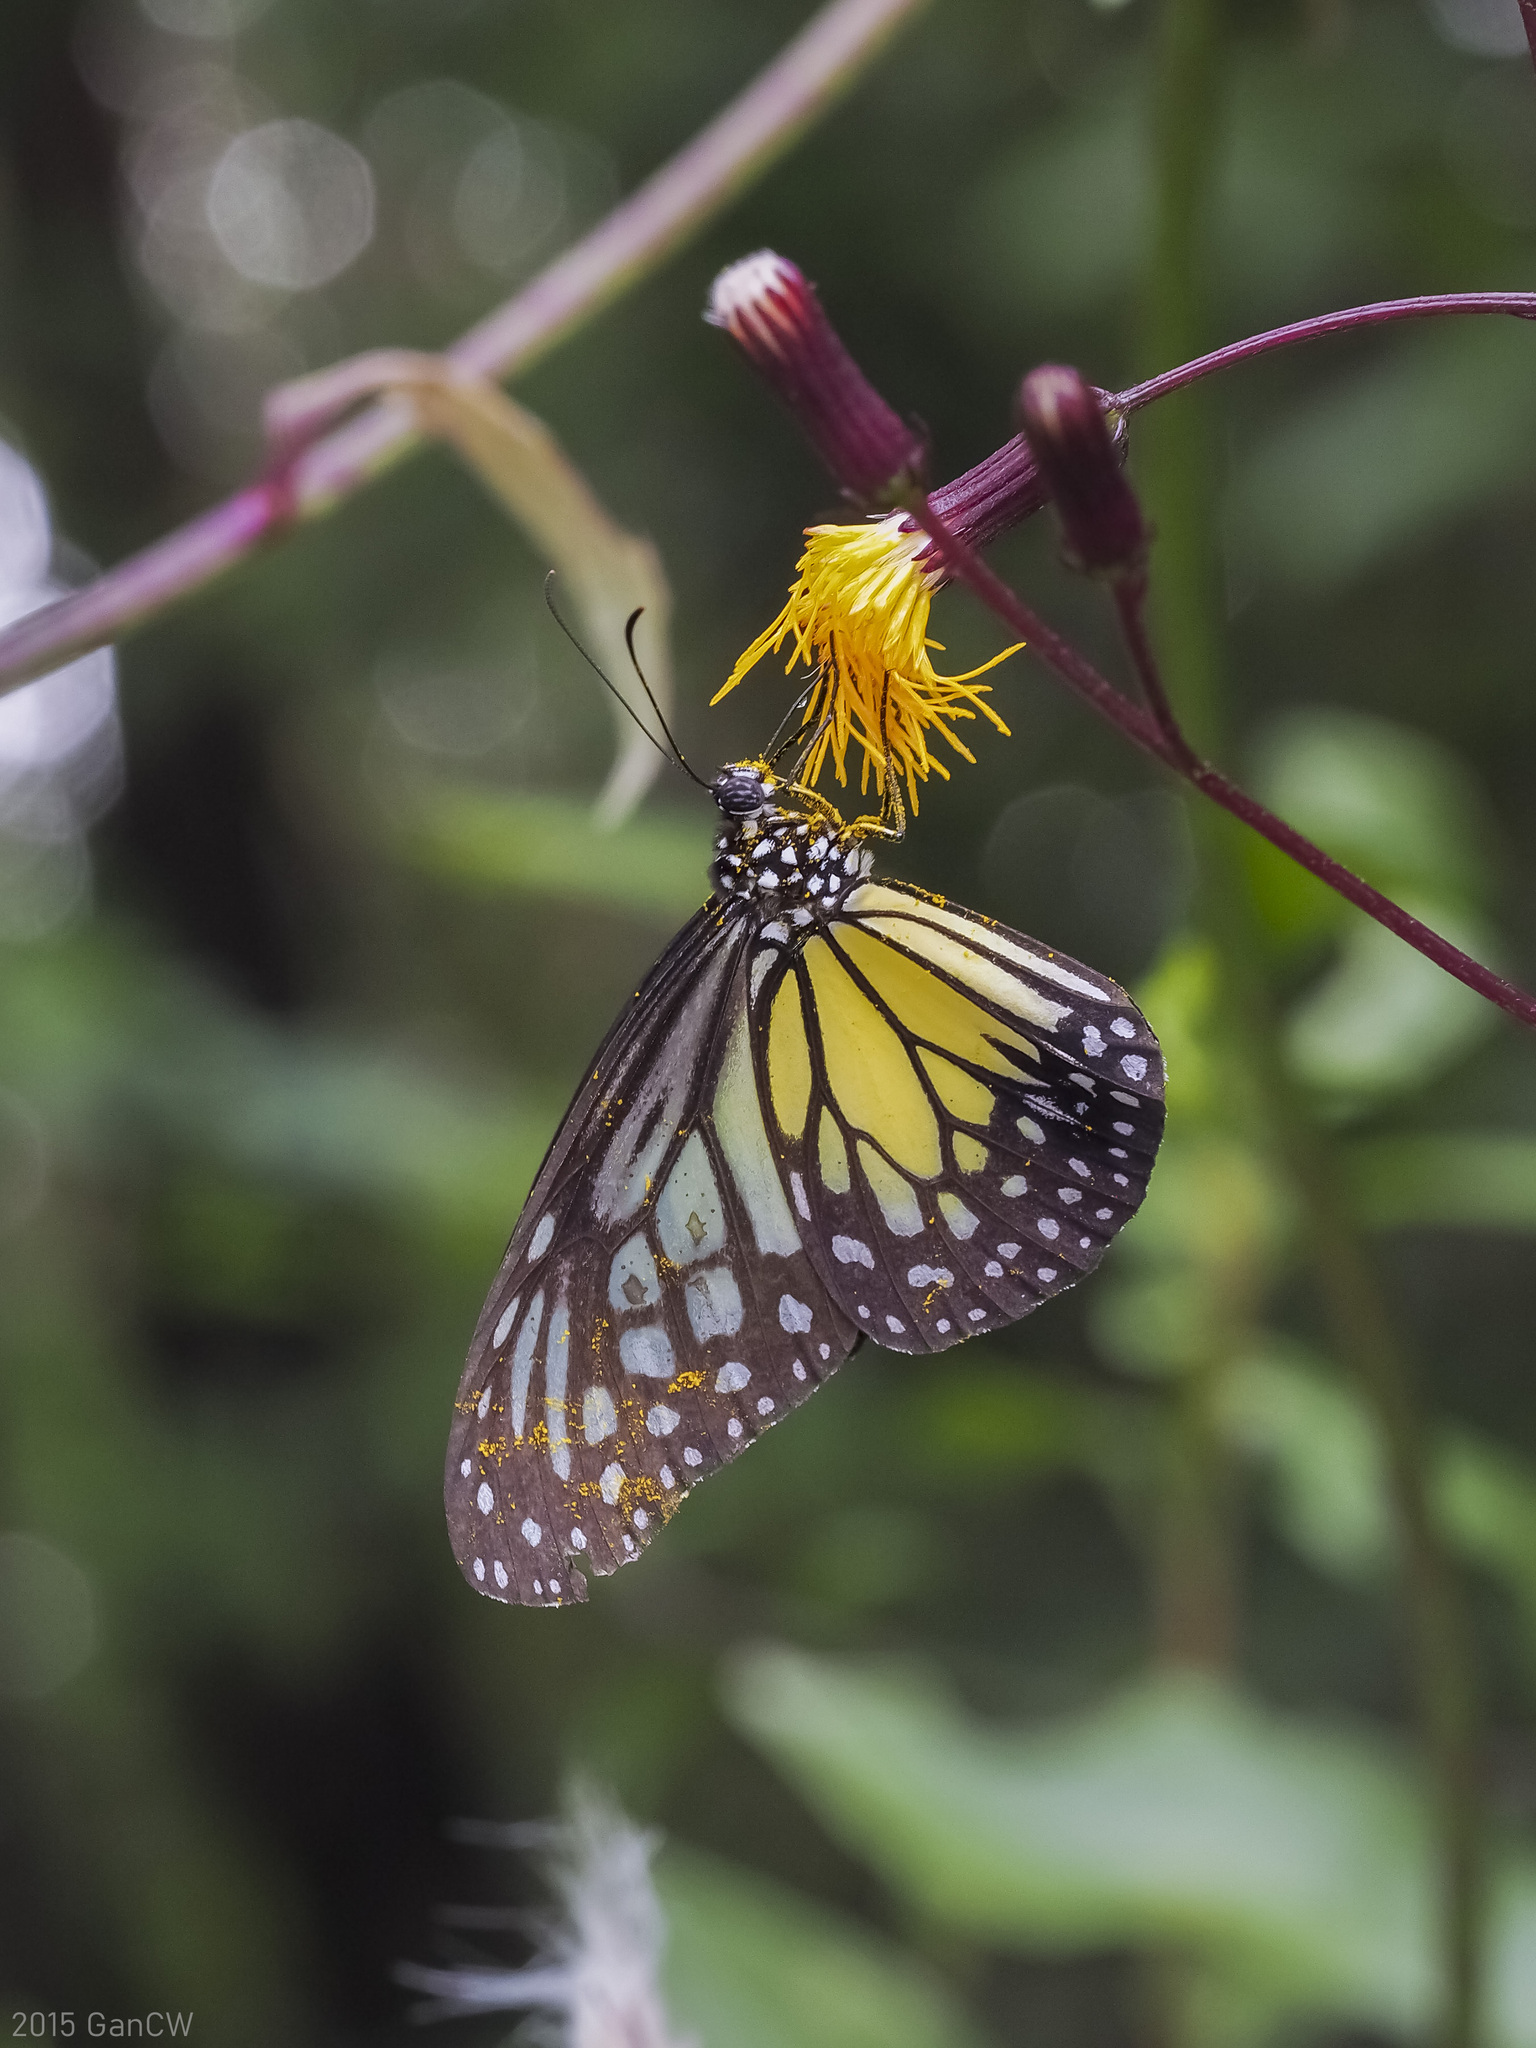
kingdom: Animalia
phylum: Arthropoda
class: Insecta
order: Lepidoptera
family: Nymphalidae
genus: Parantica
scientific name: Parantica aspasia
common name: Yellow glassy tiger
